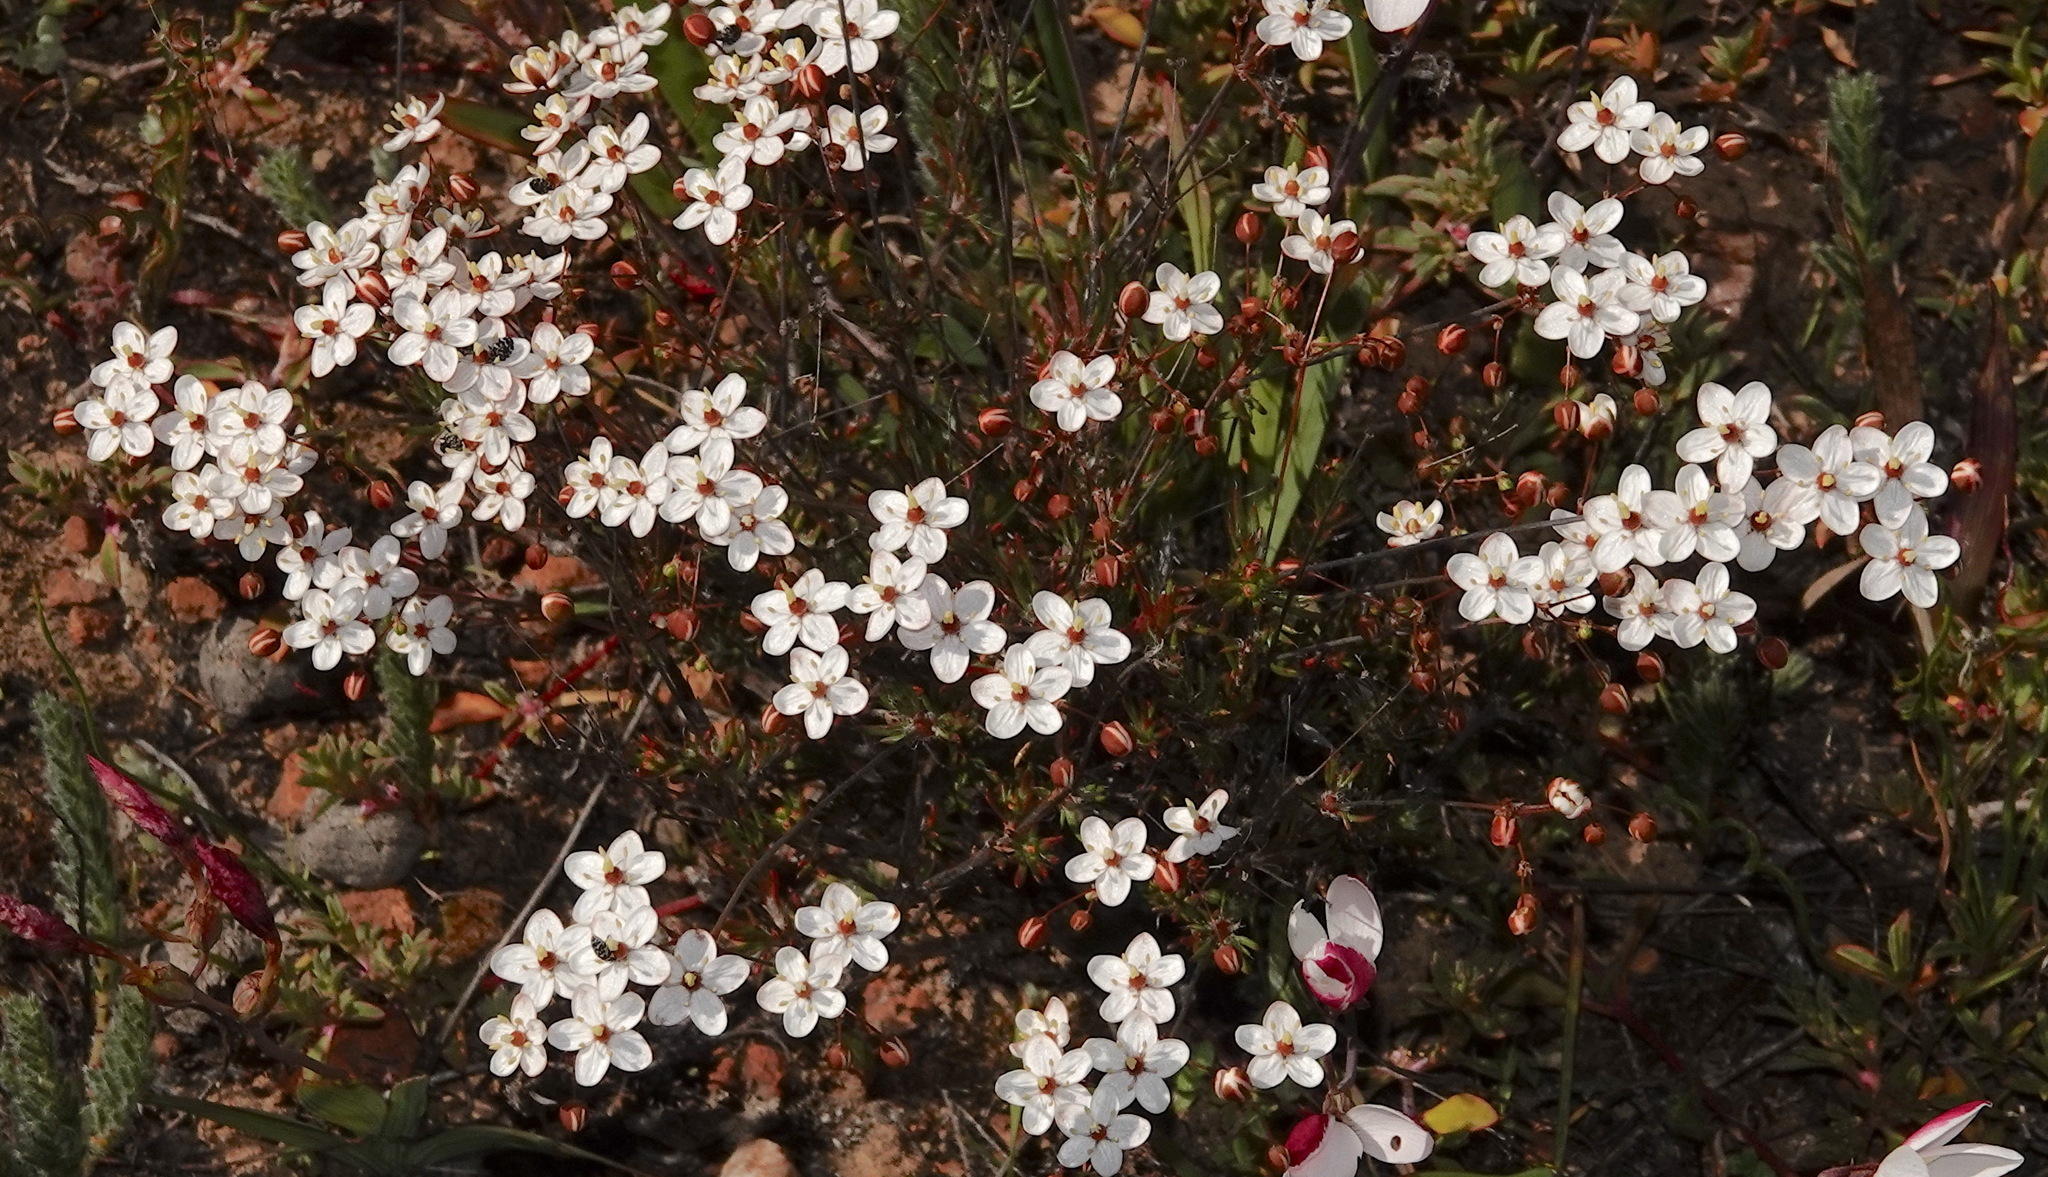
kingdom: Plantae
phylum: Tracheophyta
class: Magnoliopsida
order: Caryophyllales
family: Molluginaceae
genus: Pharnaceum
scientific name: Pharnaceum aurantium
